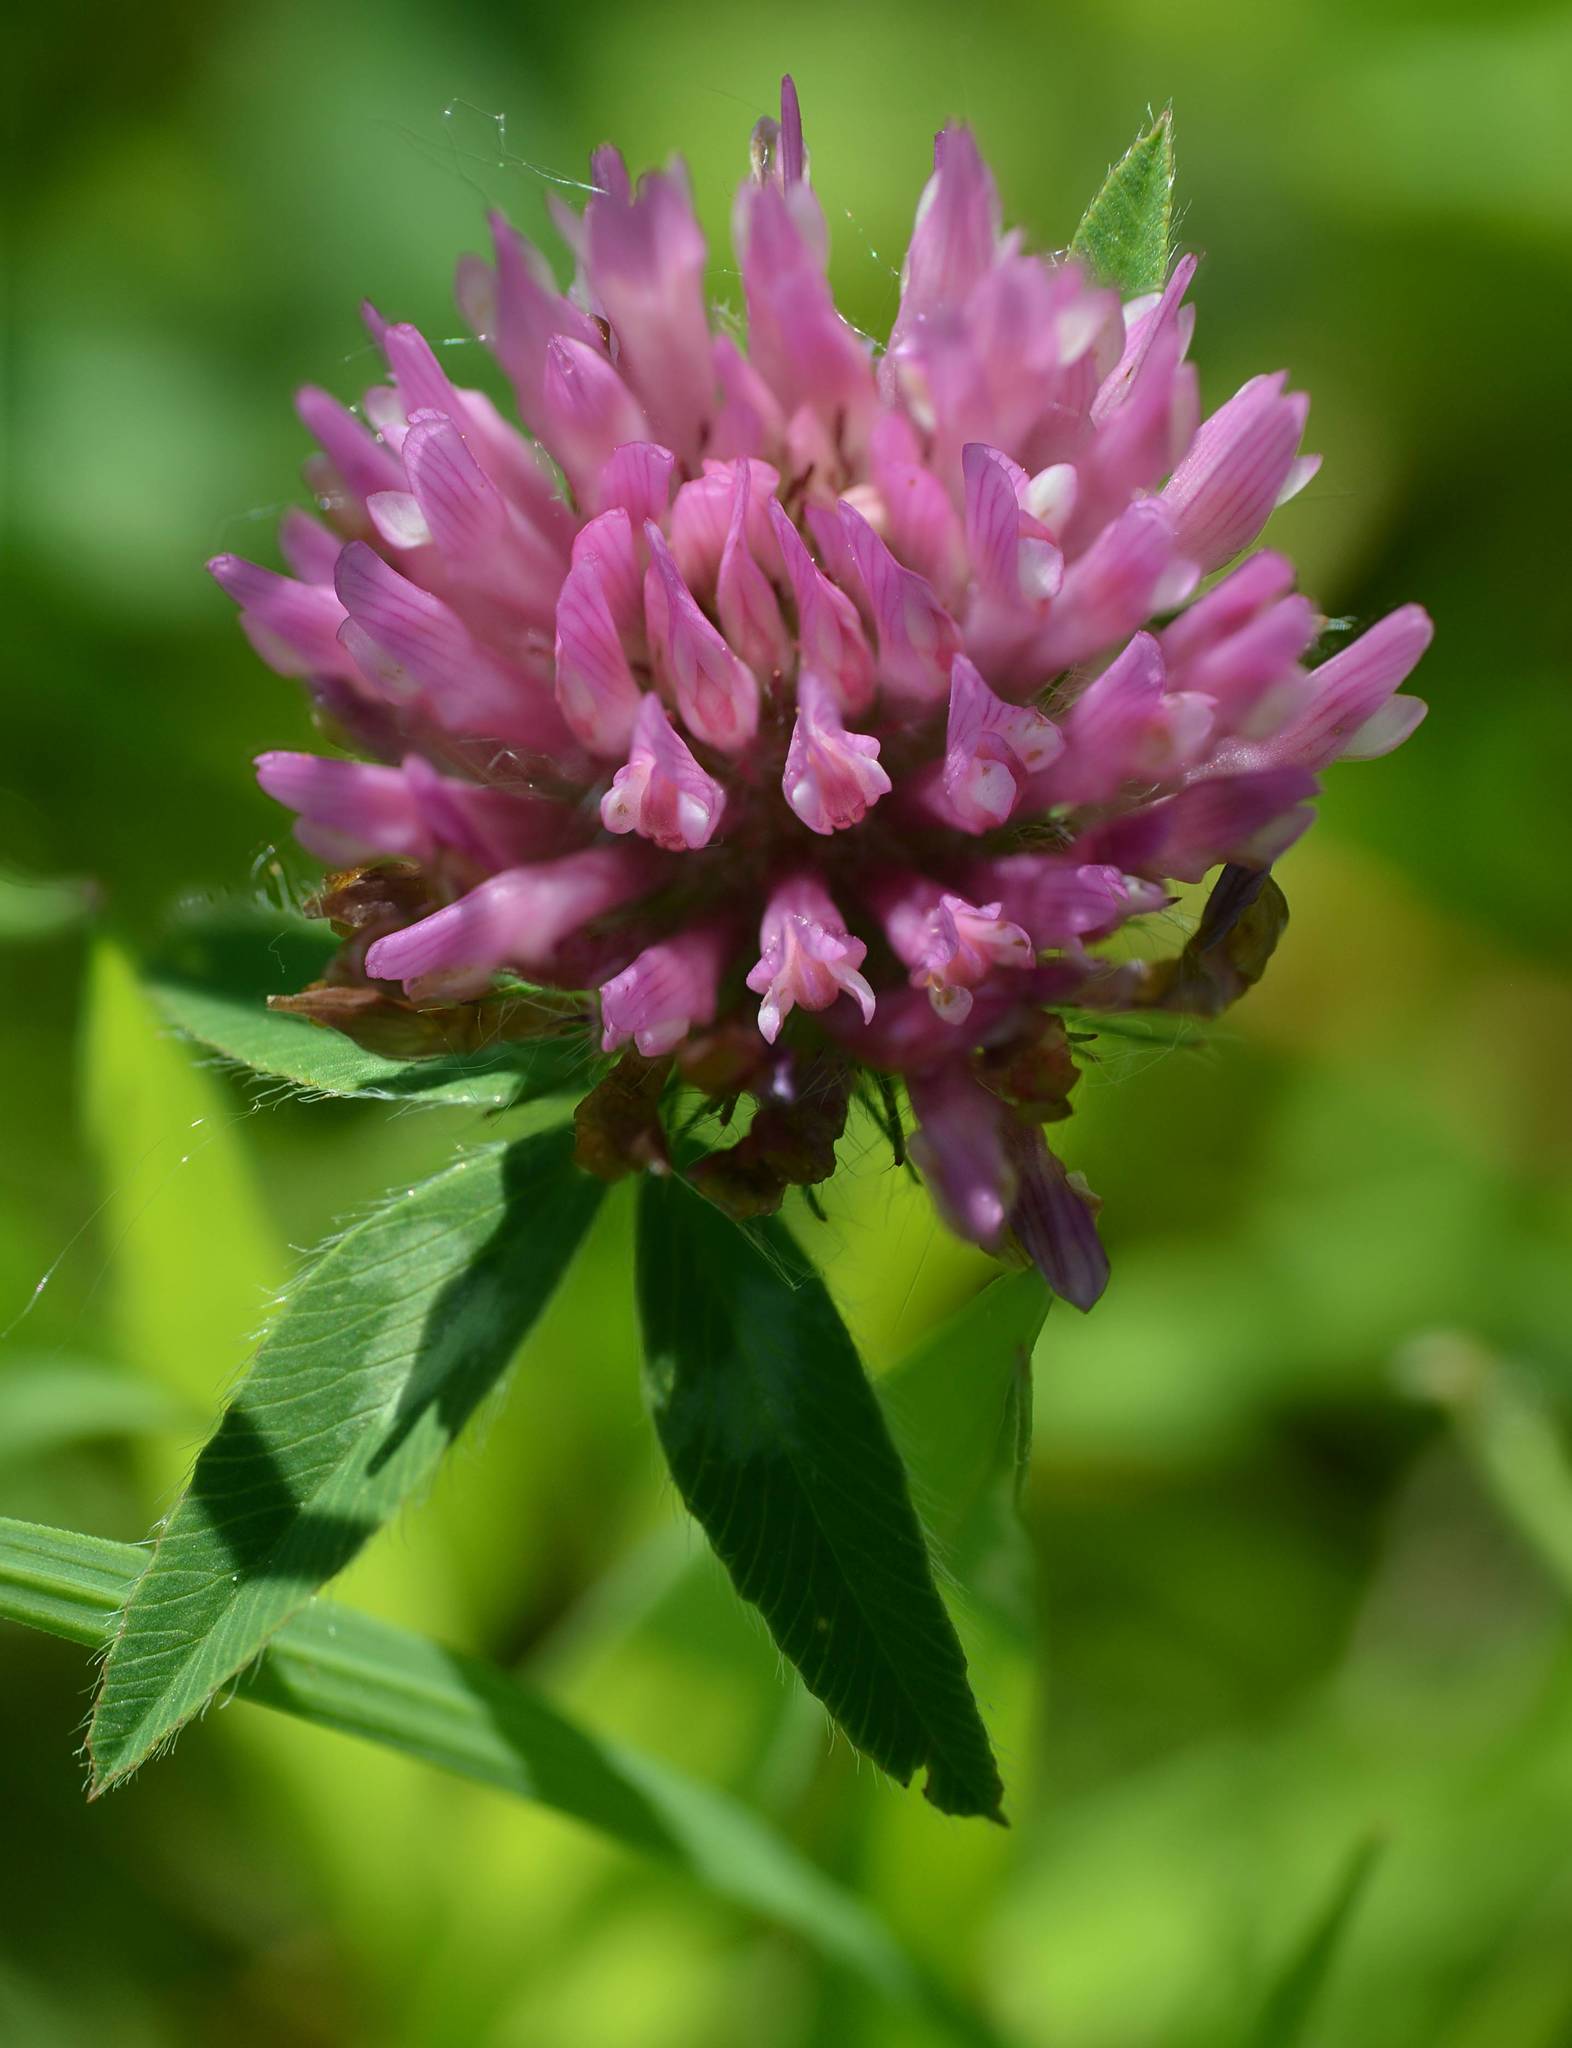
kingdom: Plantae
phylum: Tracheophyta
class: Magnoliopsida
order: Fabales
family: Fabaceae
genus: Trifolium
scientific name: Trifolium pratense
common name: Red clover
